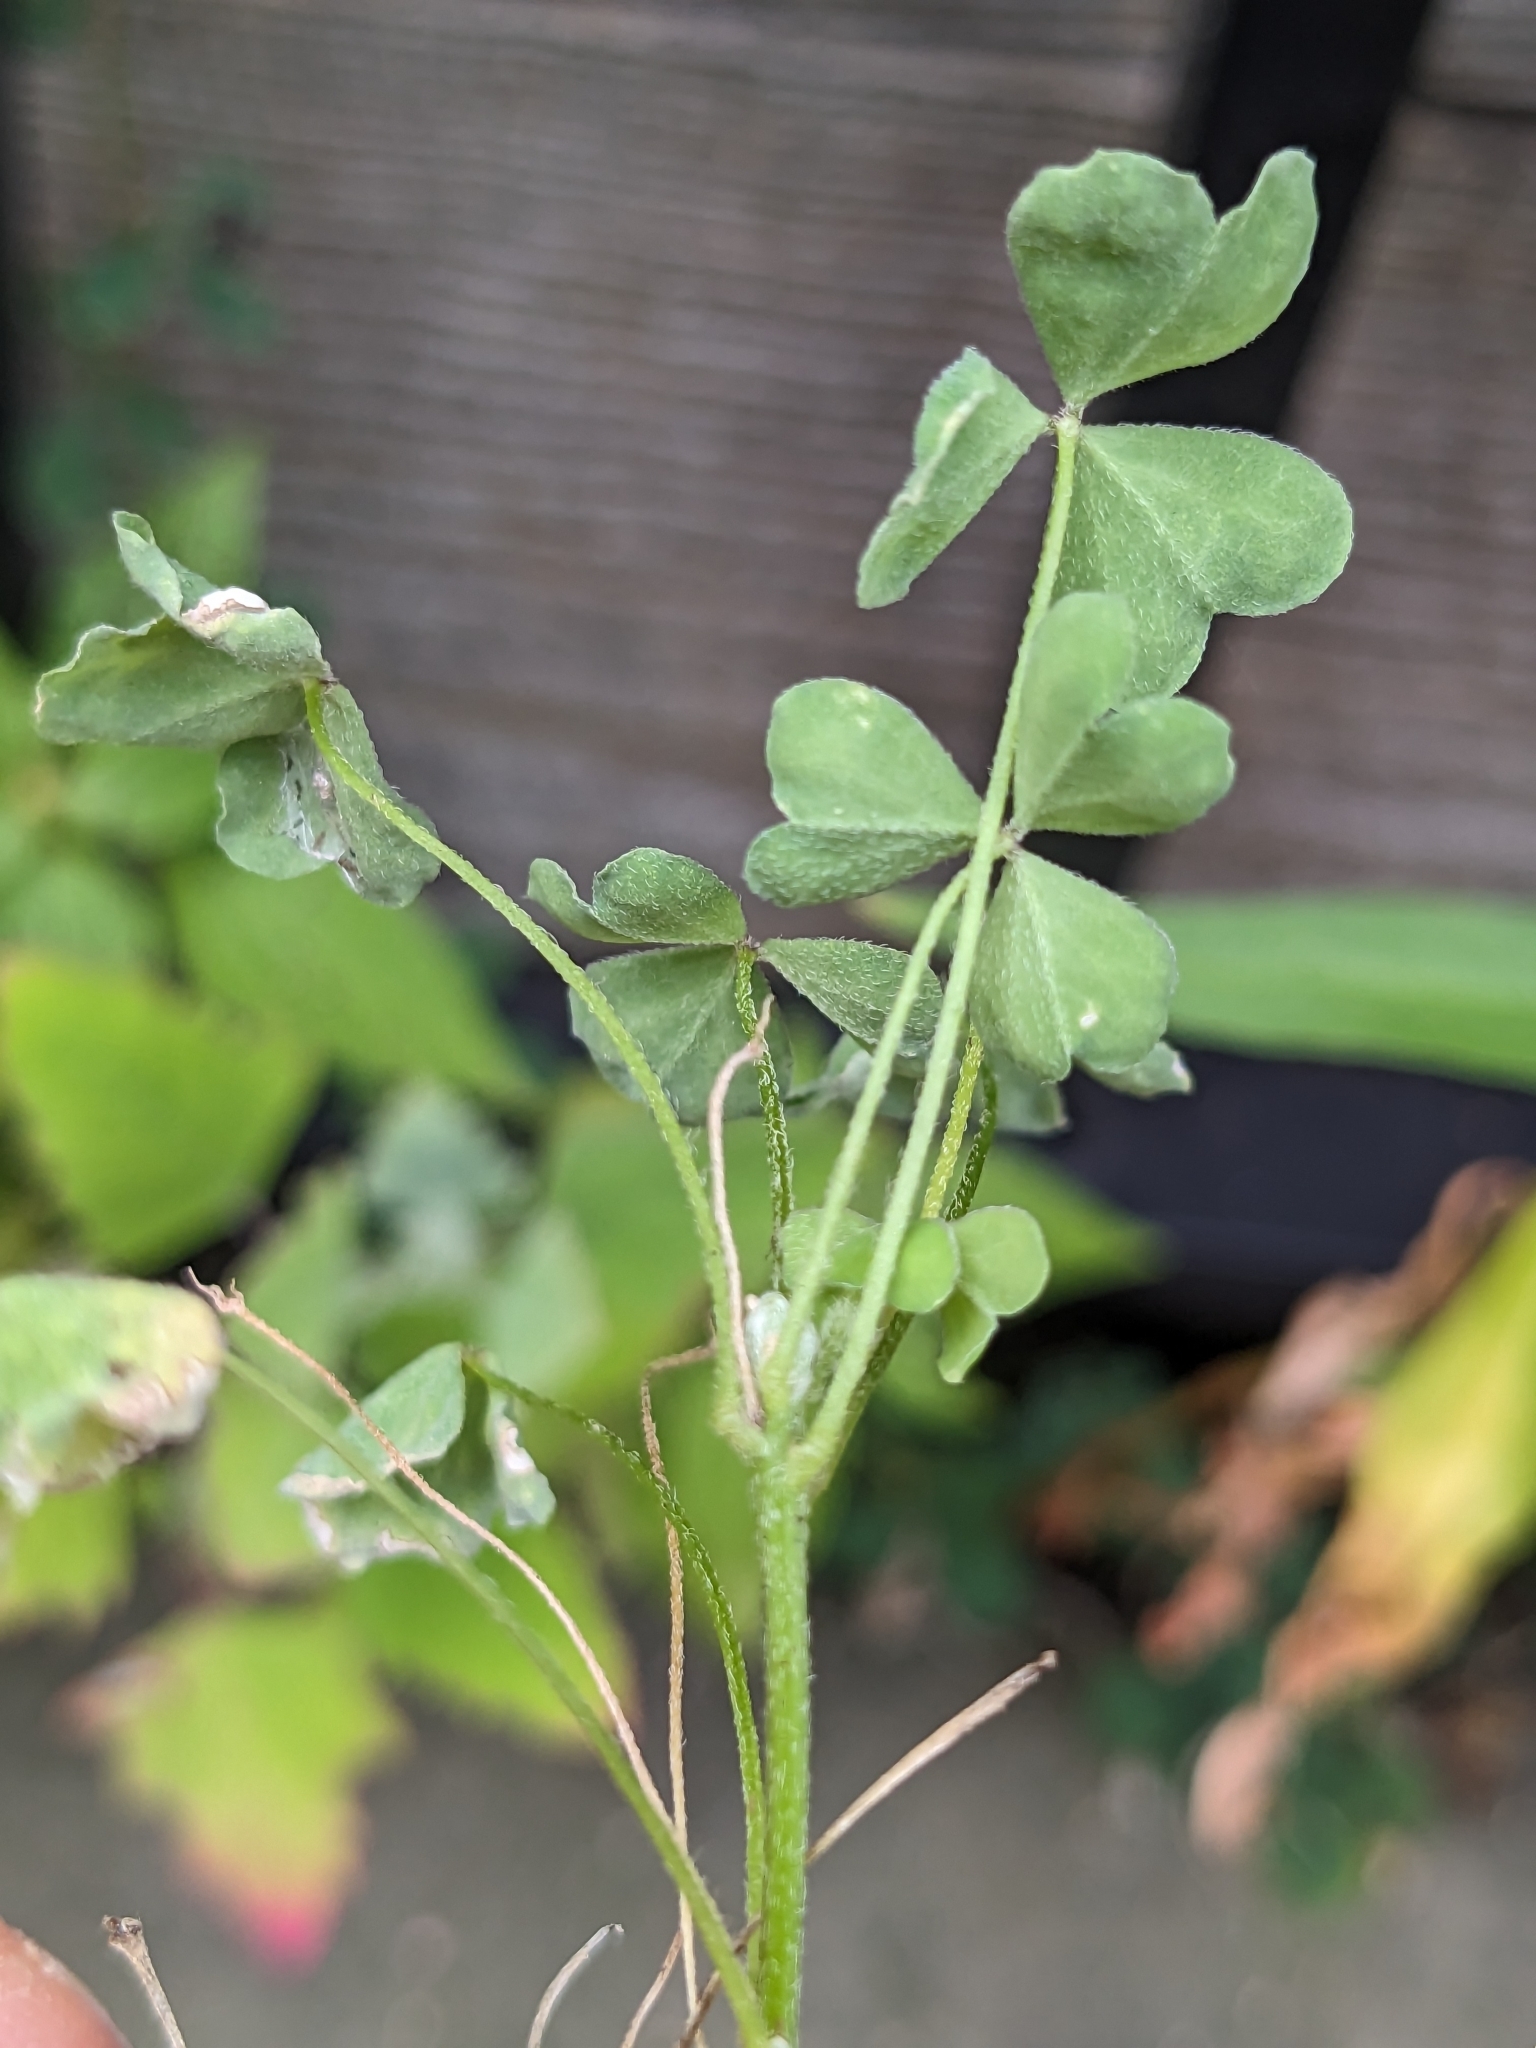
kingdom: Plantae
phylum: Tracheophyta
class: Magnoliopsida
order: Oxalidales
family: Oxalidaceae
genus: Oxalis
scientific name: Oxalis dillenii
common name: Sussex yellow-sorrel
